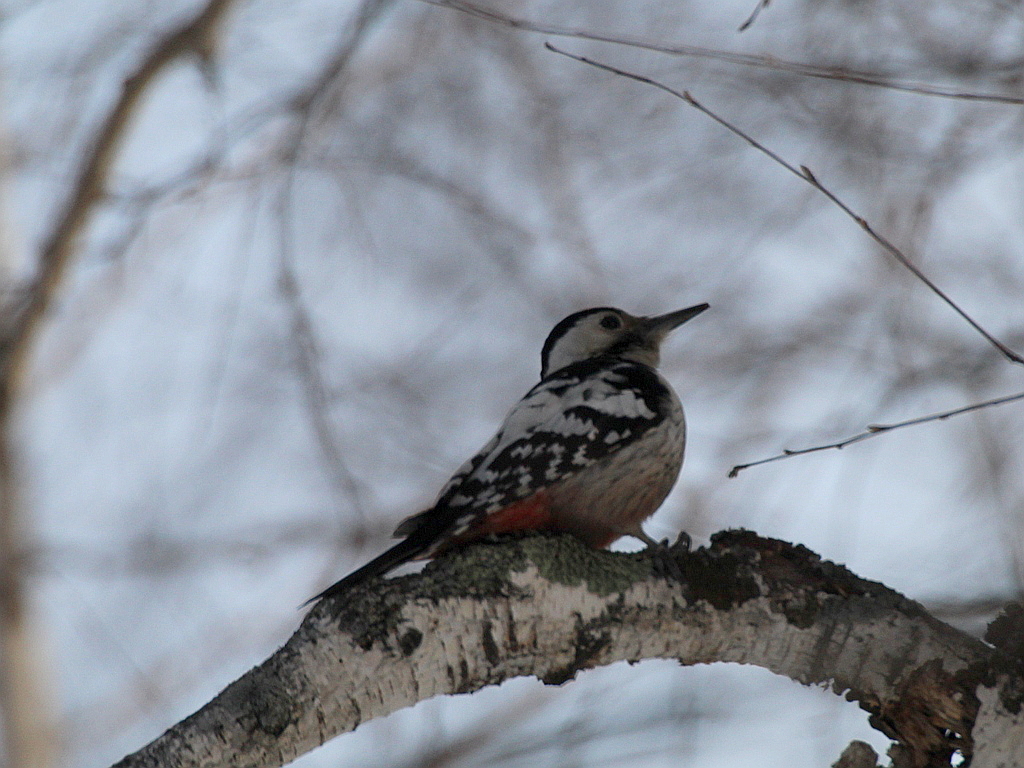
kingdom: Animalia
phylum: Chordata
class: Aves
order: Piciformes
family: Picidae
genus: Dendrocopos
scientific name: Dendrocopos leucotos
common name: White-backed woodpecker
